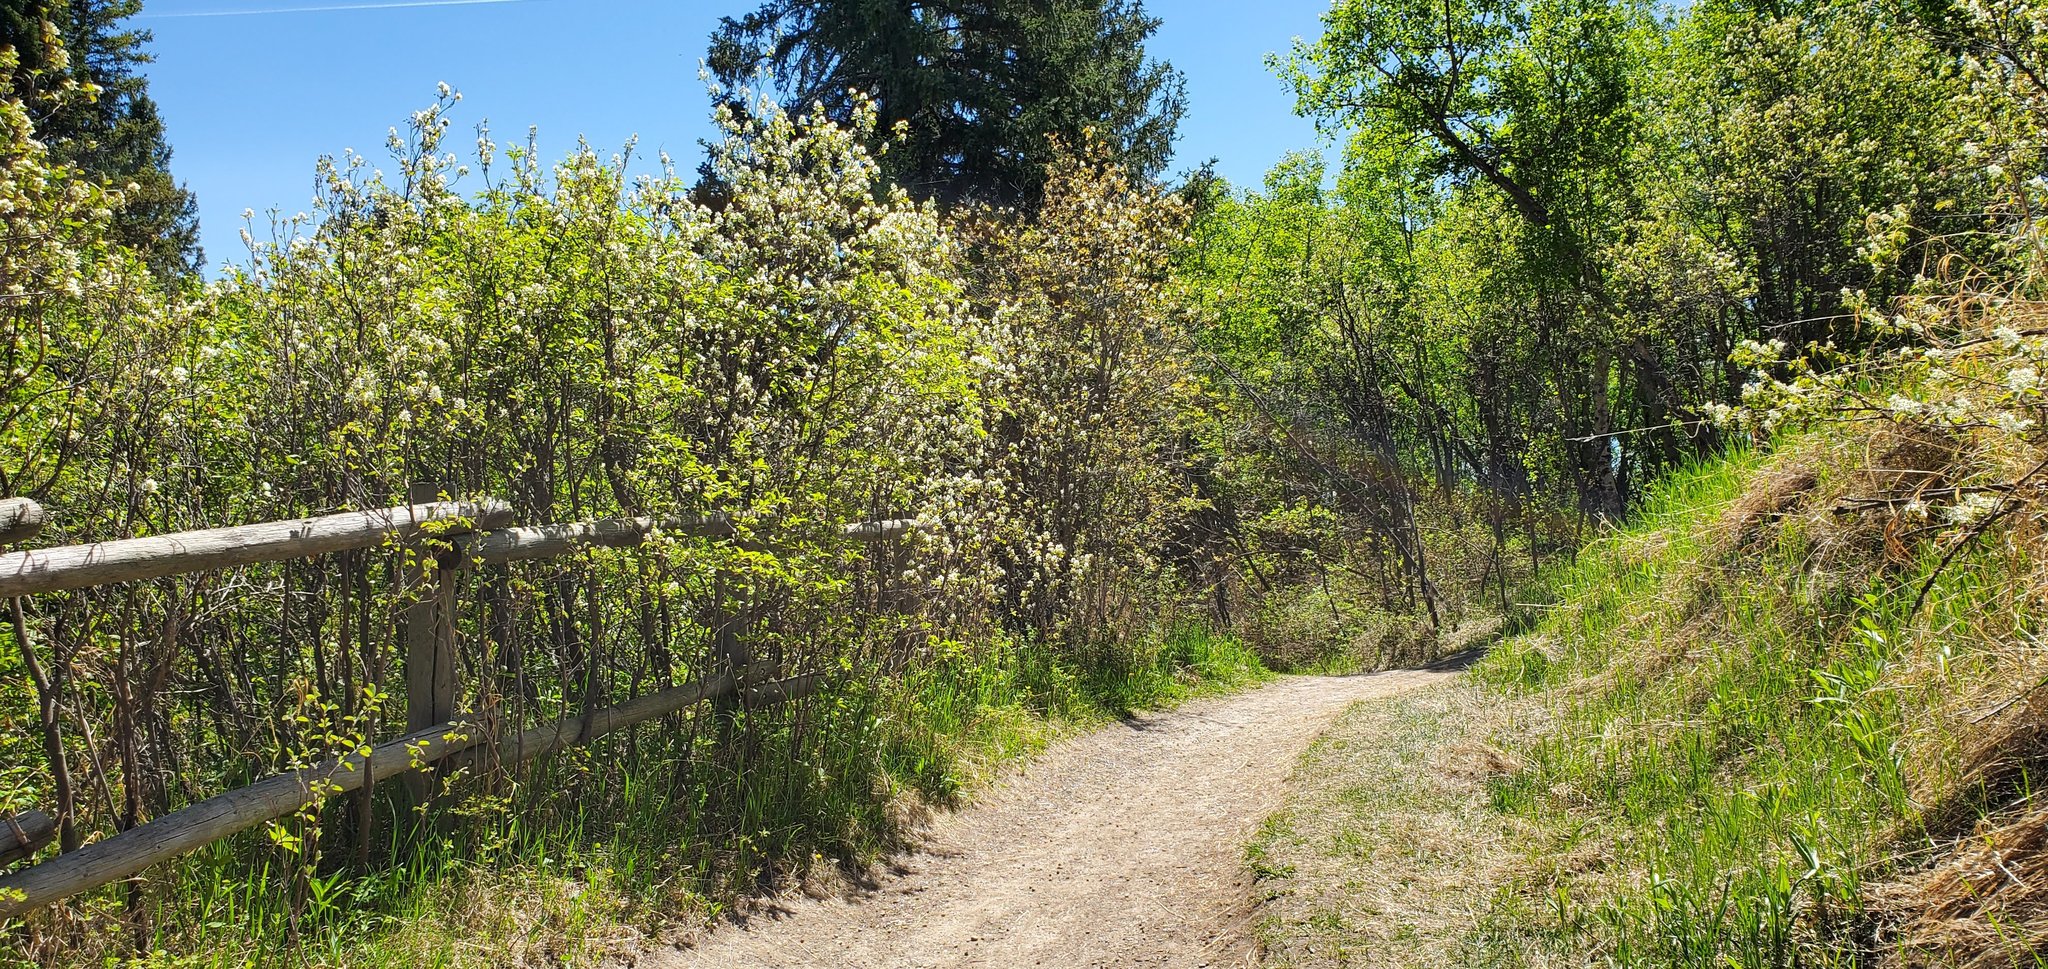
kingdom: Plantae
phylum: Tracheophyta
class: Magnoliopsida
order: Rosales
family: Rosaceae
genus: Amelanchier
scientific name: Amelanchier alnifolia
